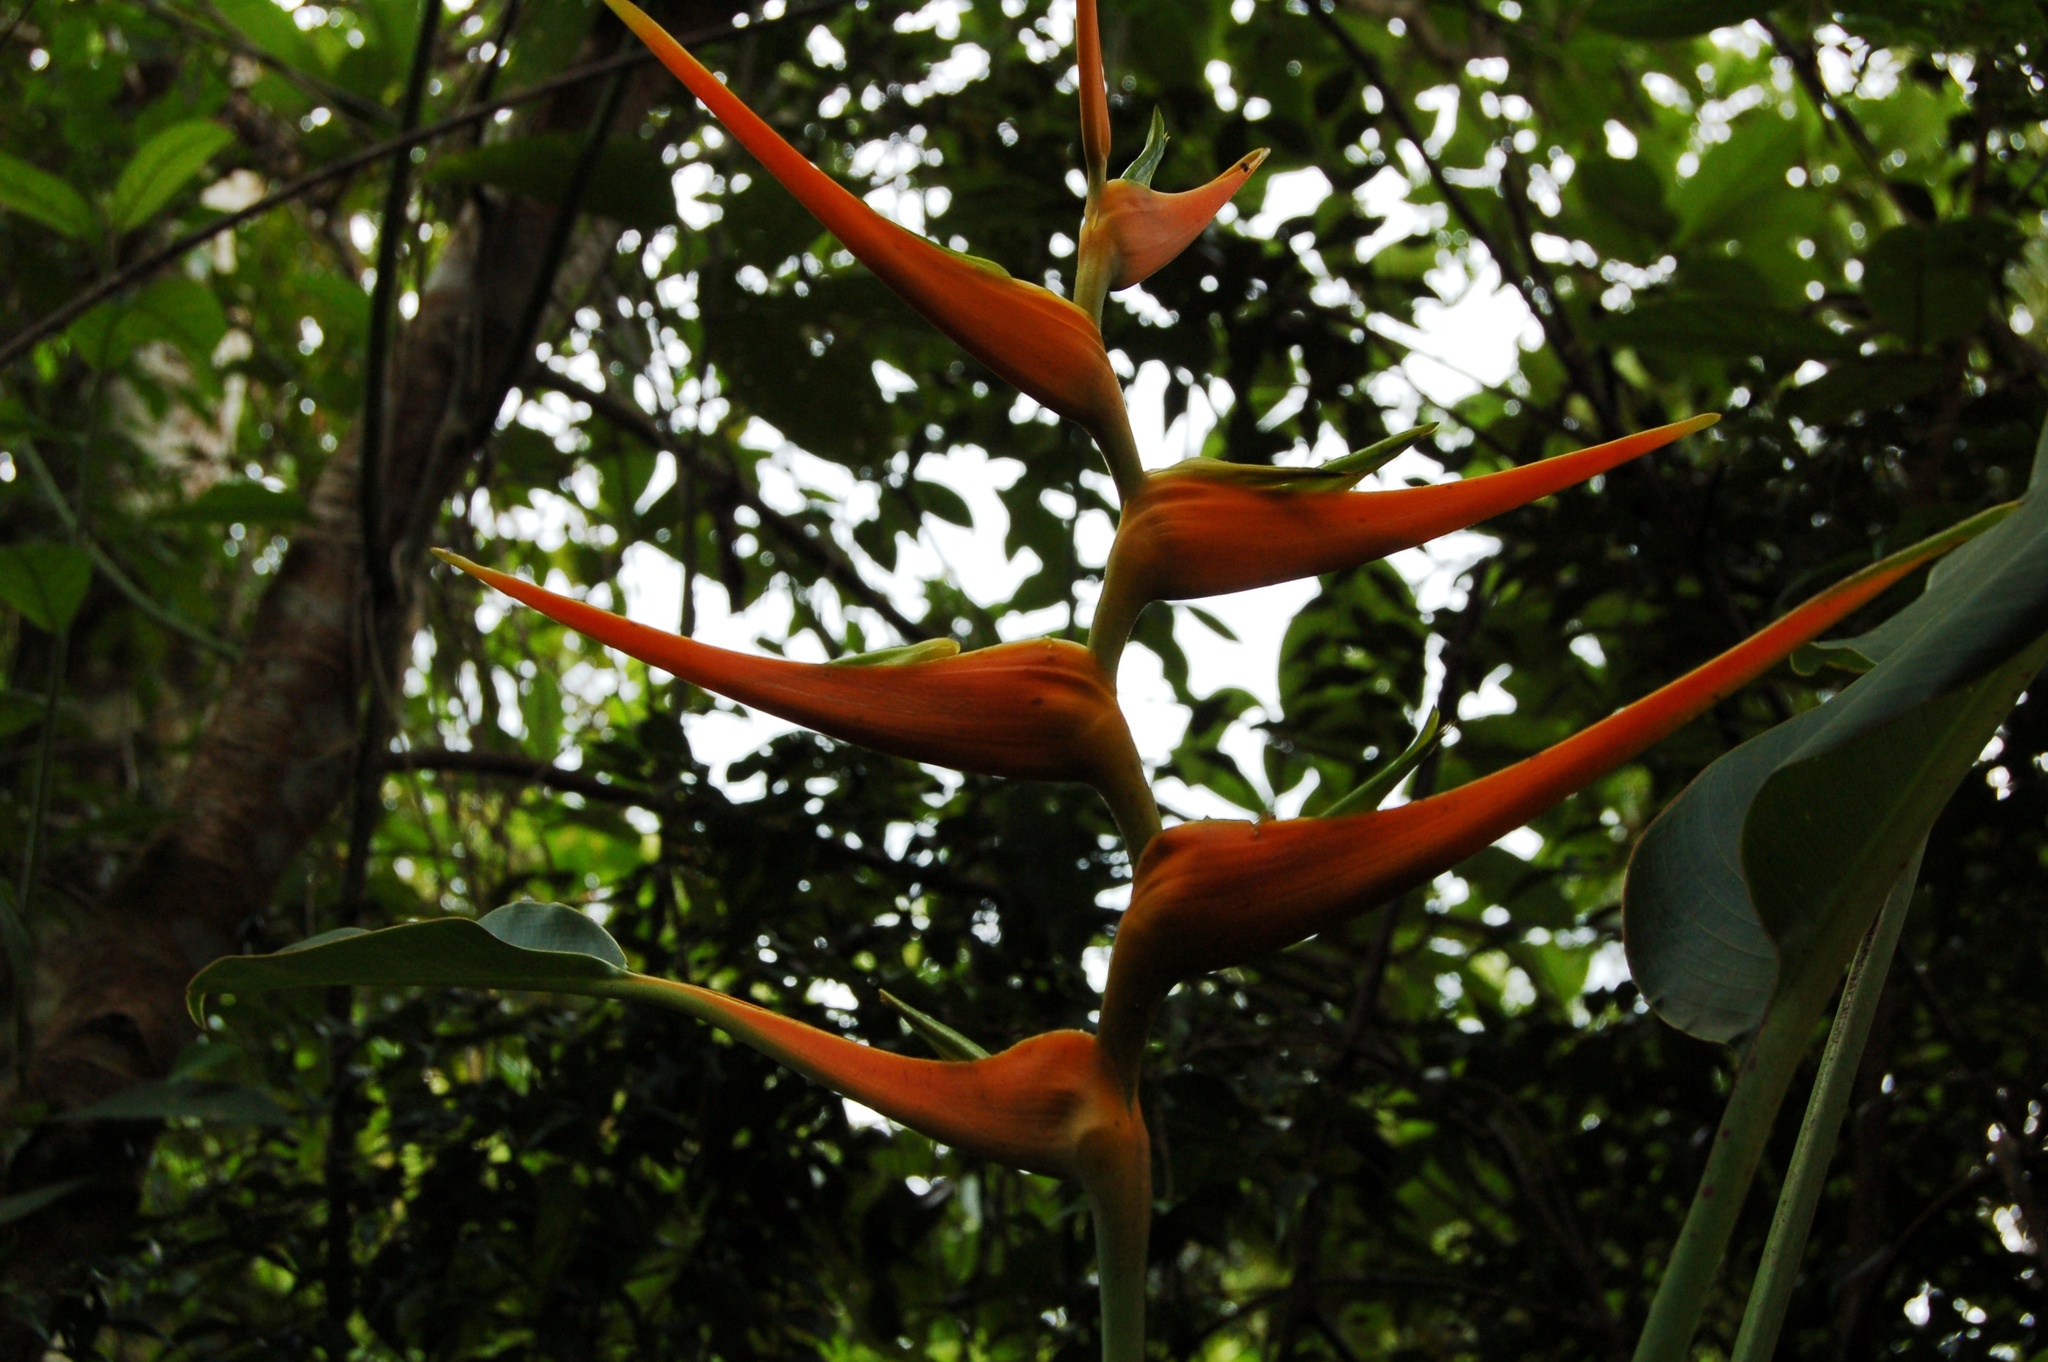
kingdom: Plantae
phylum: Tracheophyta
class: Liliopsida
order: Zingiberales
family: Heliconiaceae
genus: Heliconia
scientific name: Heliconia latispatha
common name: Expanded lobsterclaw
